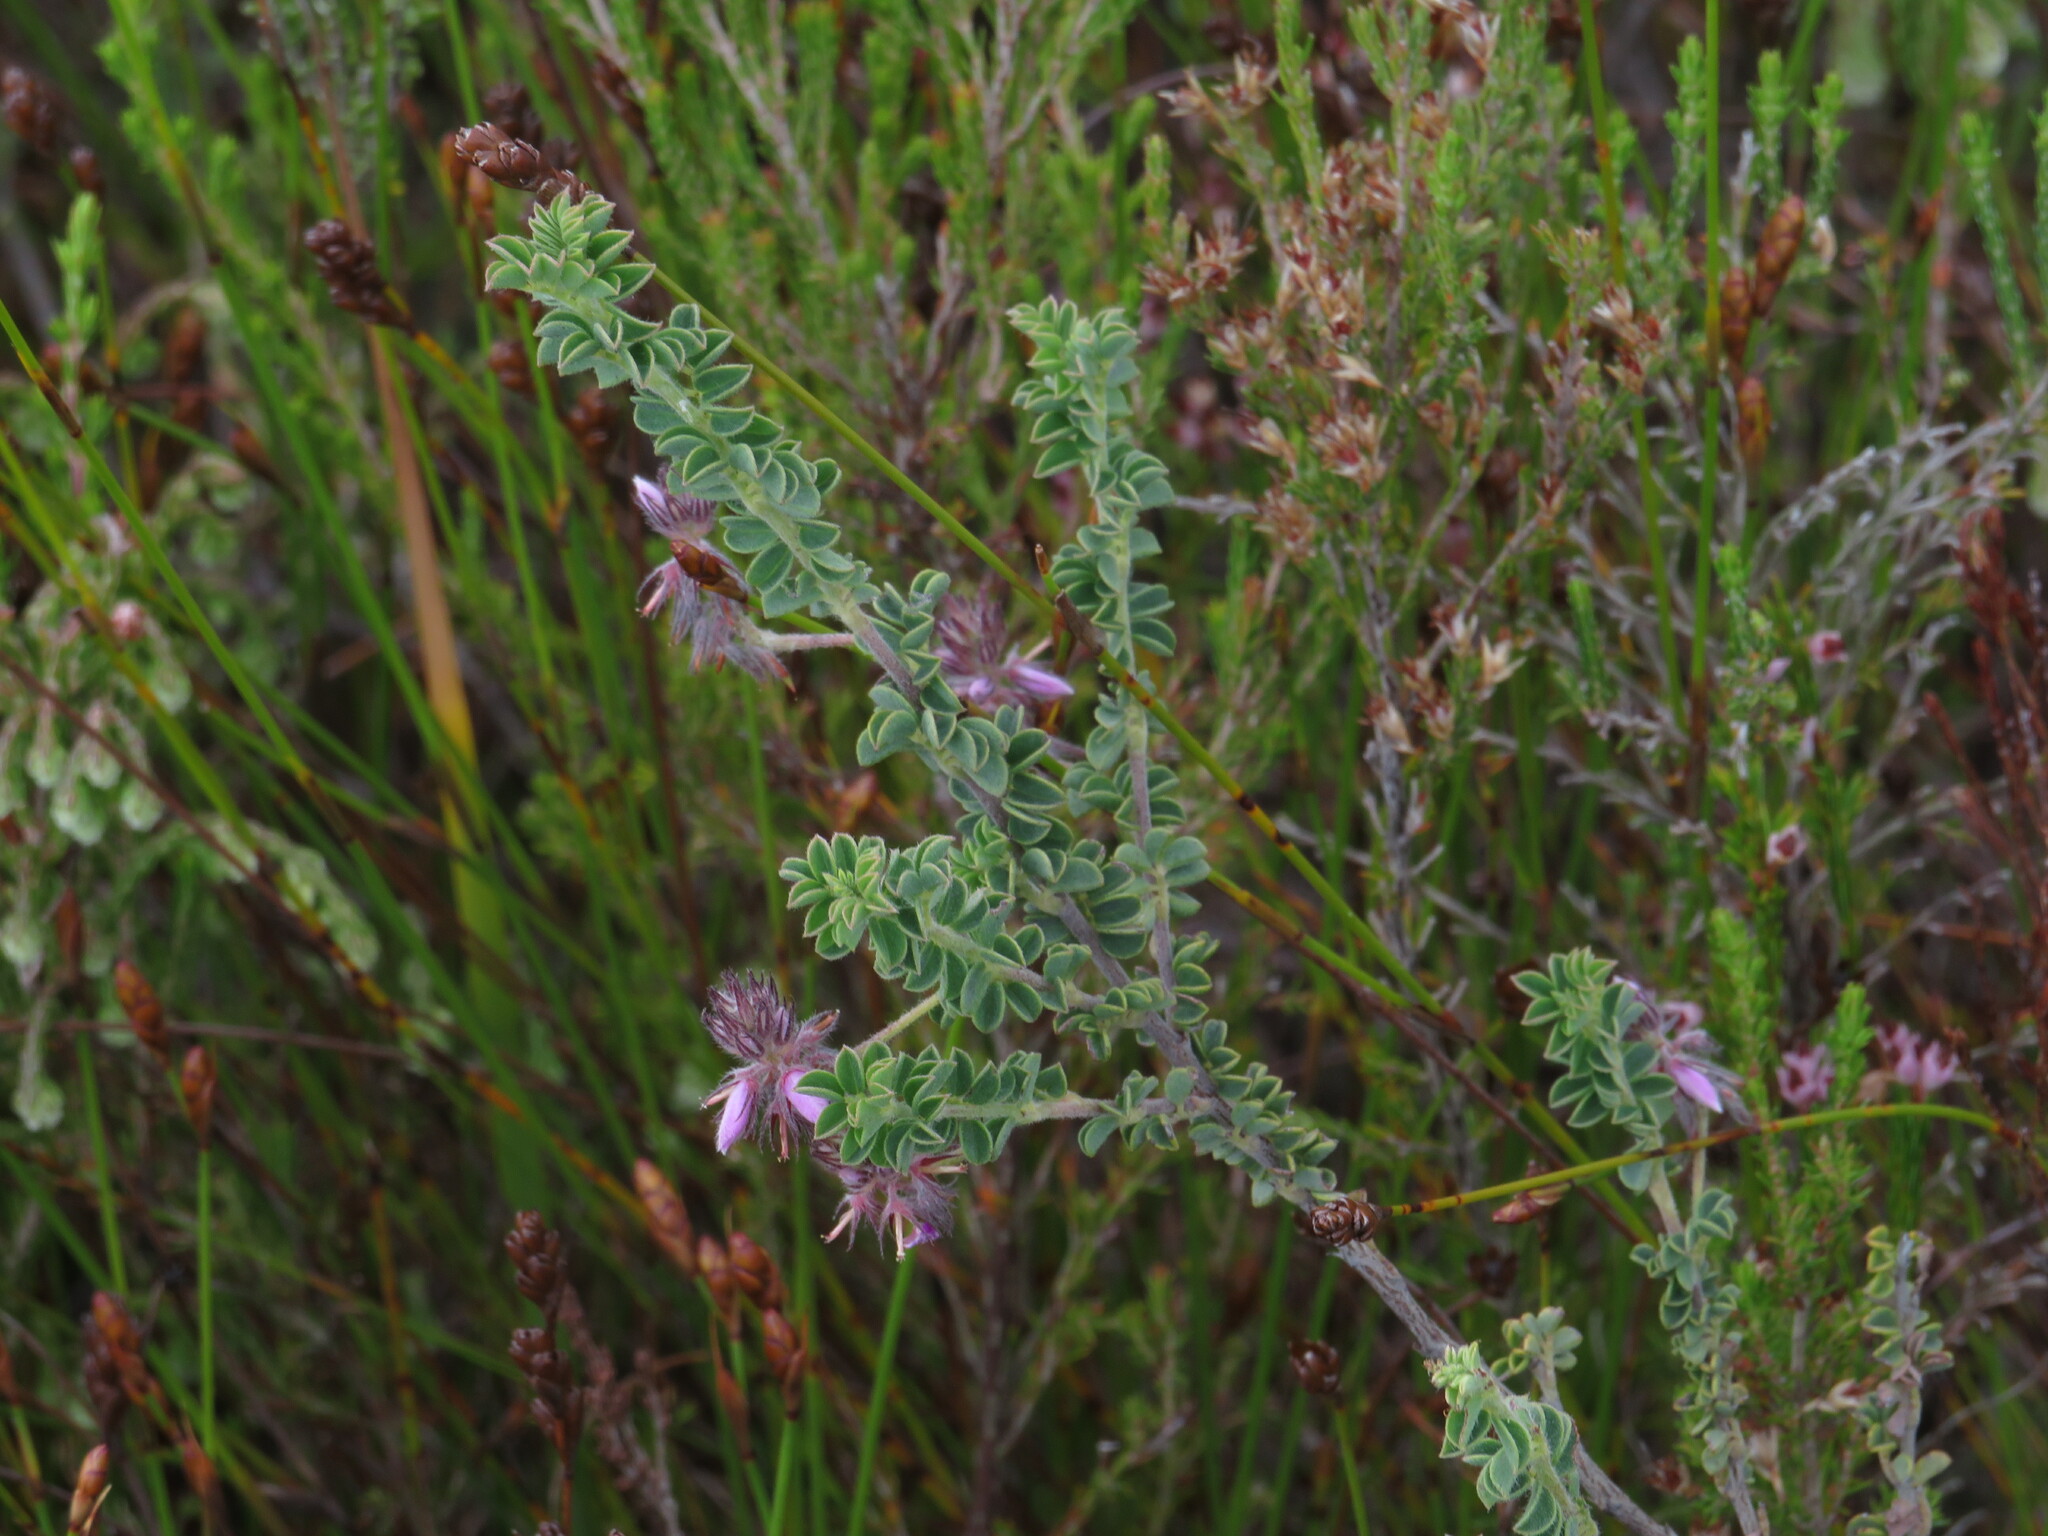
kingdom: Plantae
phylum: Tracheophyta
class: Magnoliopsida
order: Fabales
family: Fabaceae
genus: Indigofera
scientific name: Indigofera alopecuroides
